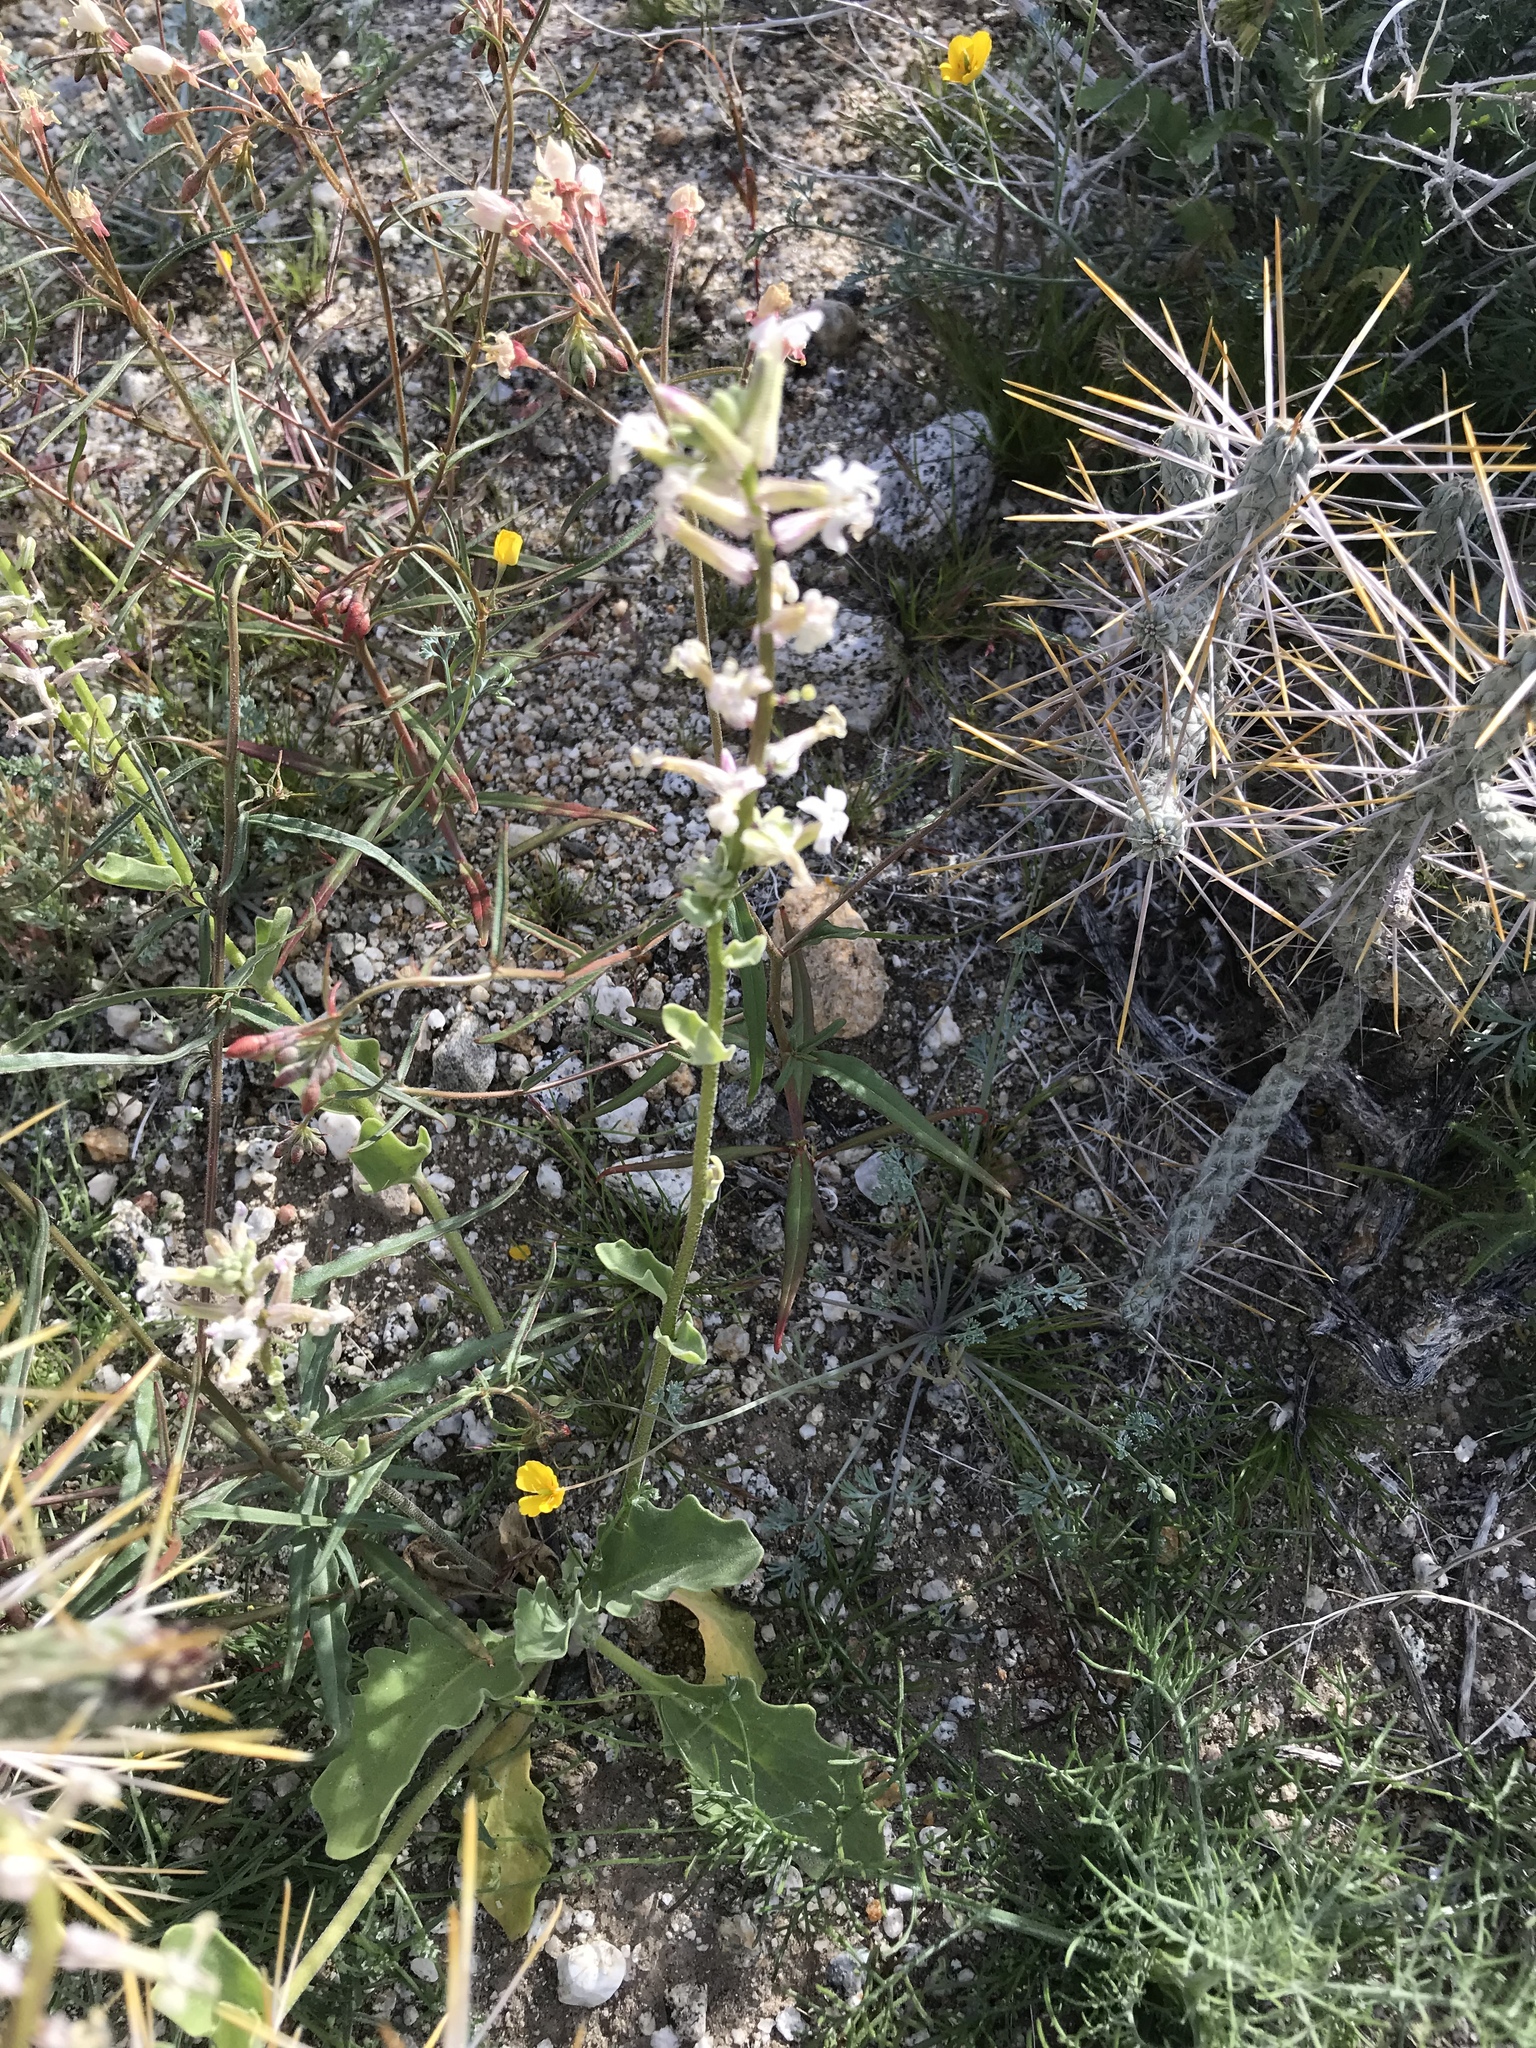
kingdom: Plantae
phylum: Tracheophyta
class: Magnoliopsida
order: Brassicales
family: Brassicaceae
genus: Dithyrea
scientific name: Dithyrea californica
